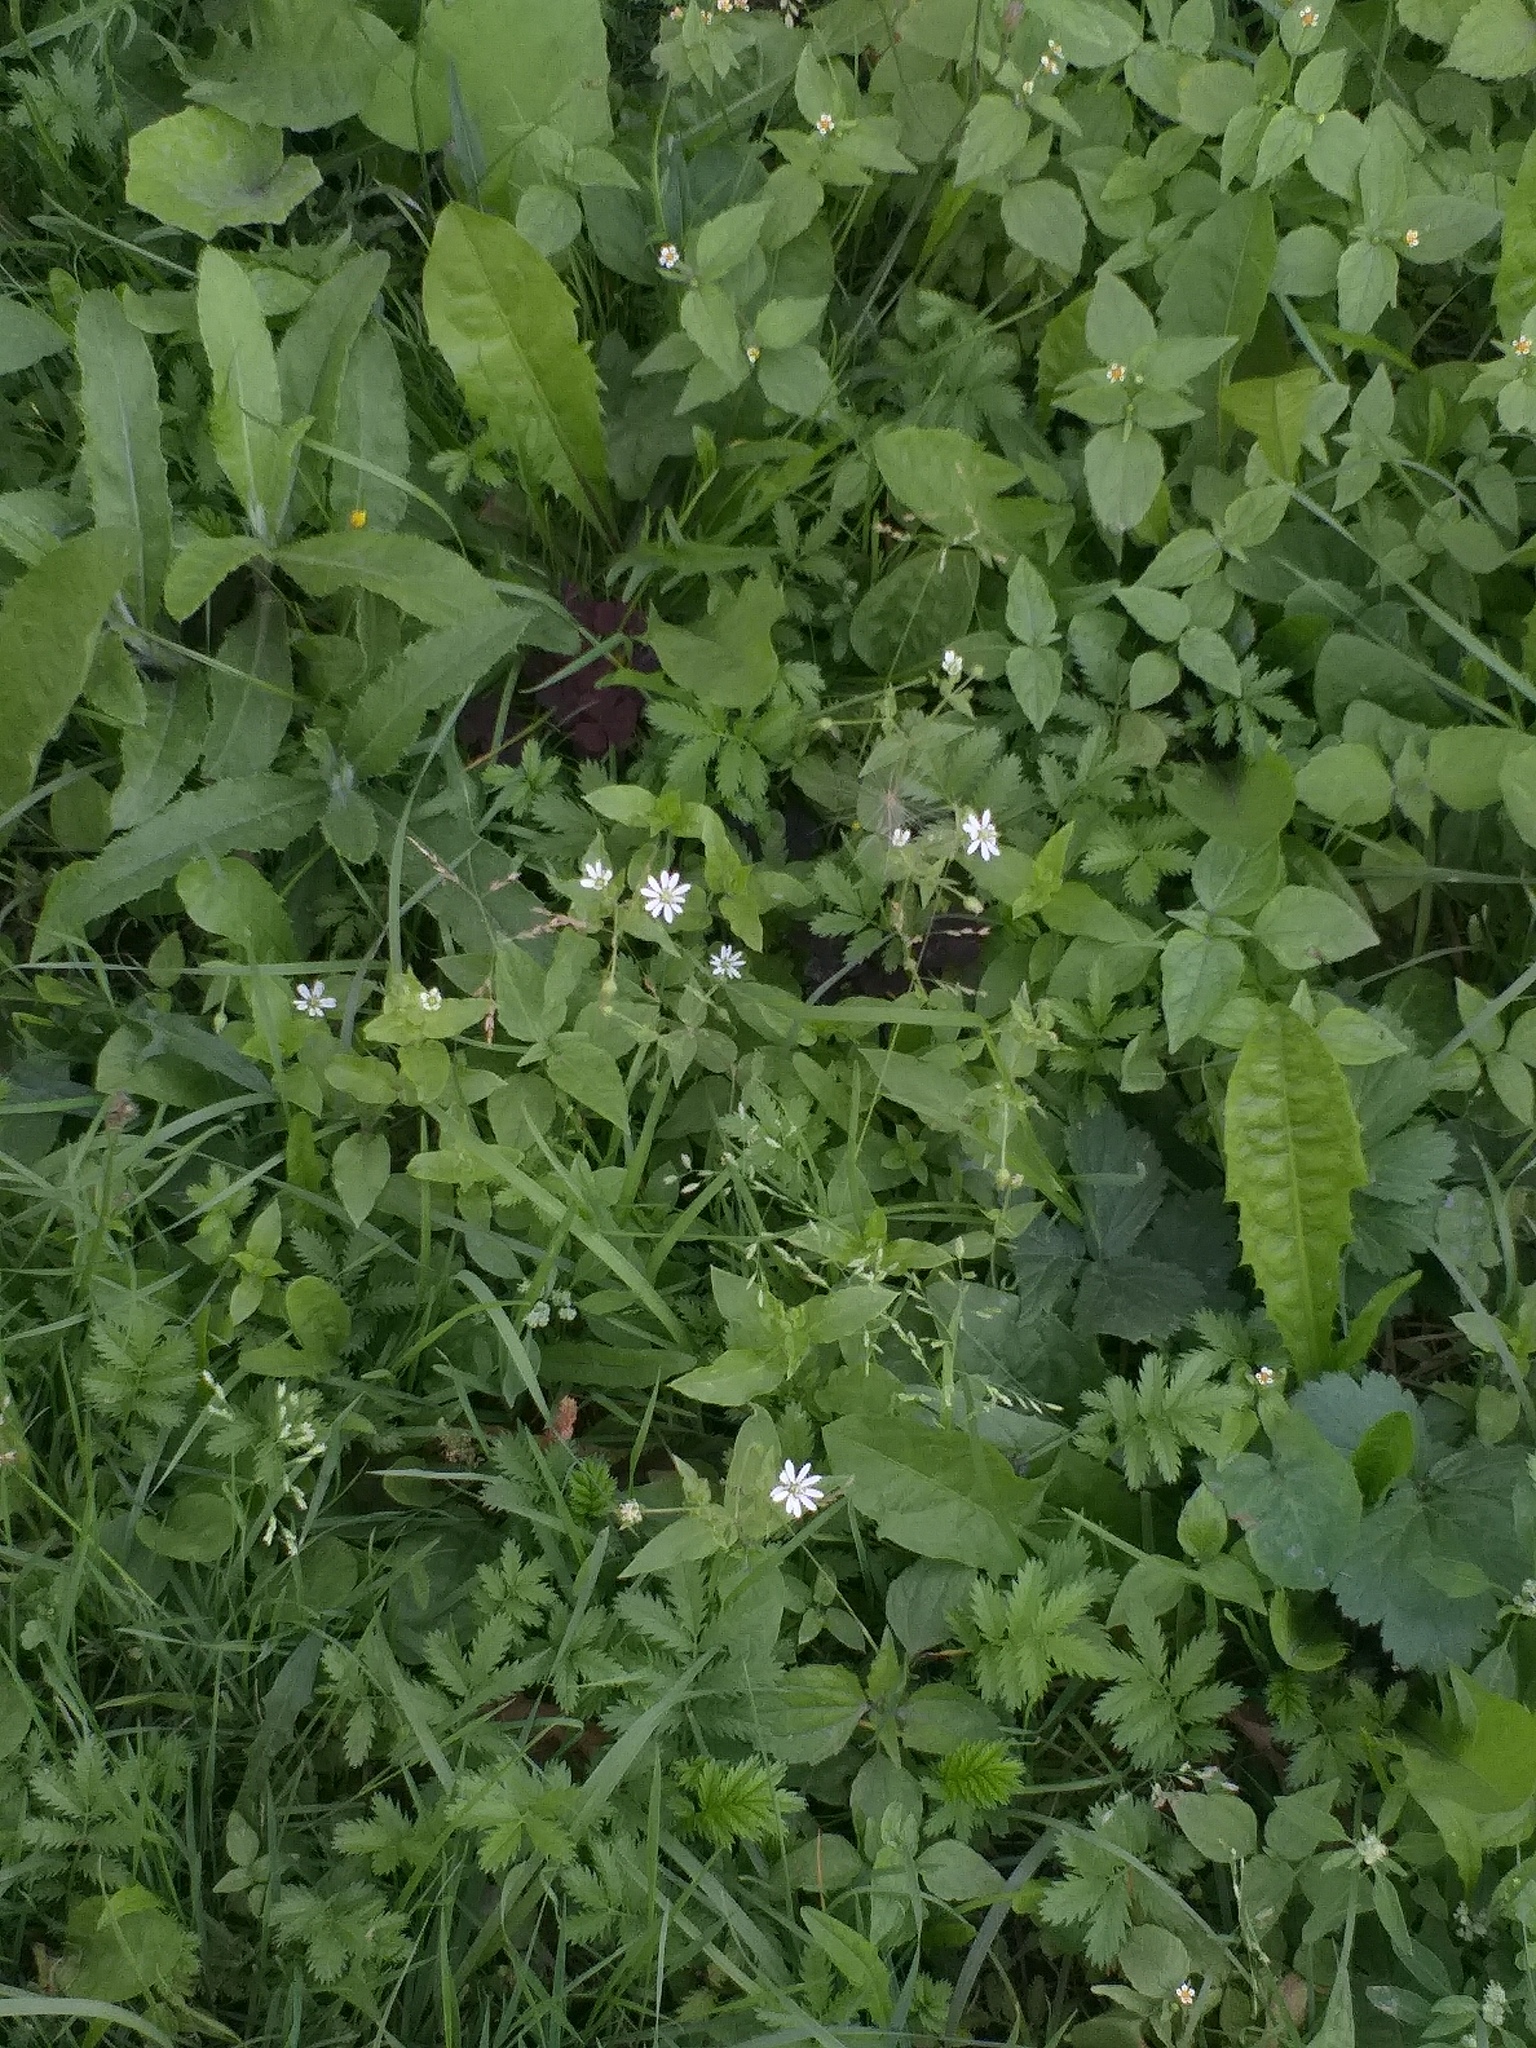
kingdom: Plantae
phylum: Tracheophyta
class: Magnoliopsida
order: Caryophyllales
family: Caryophyllaceae
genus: Stellaria
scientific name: Stellaria aquatica
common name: Water chickweed
